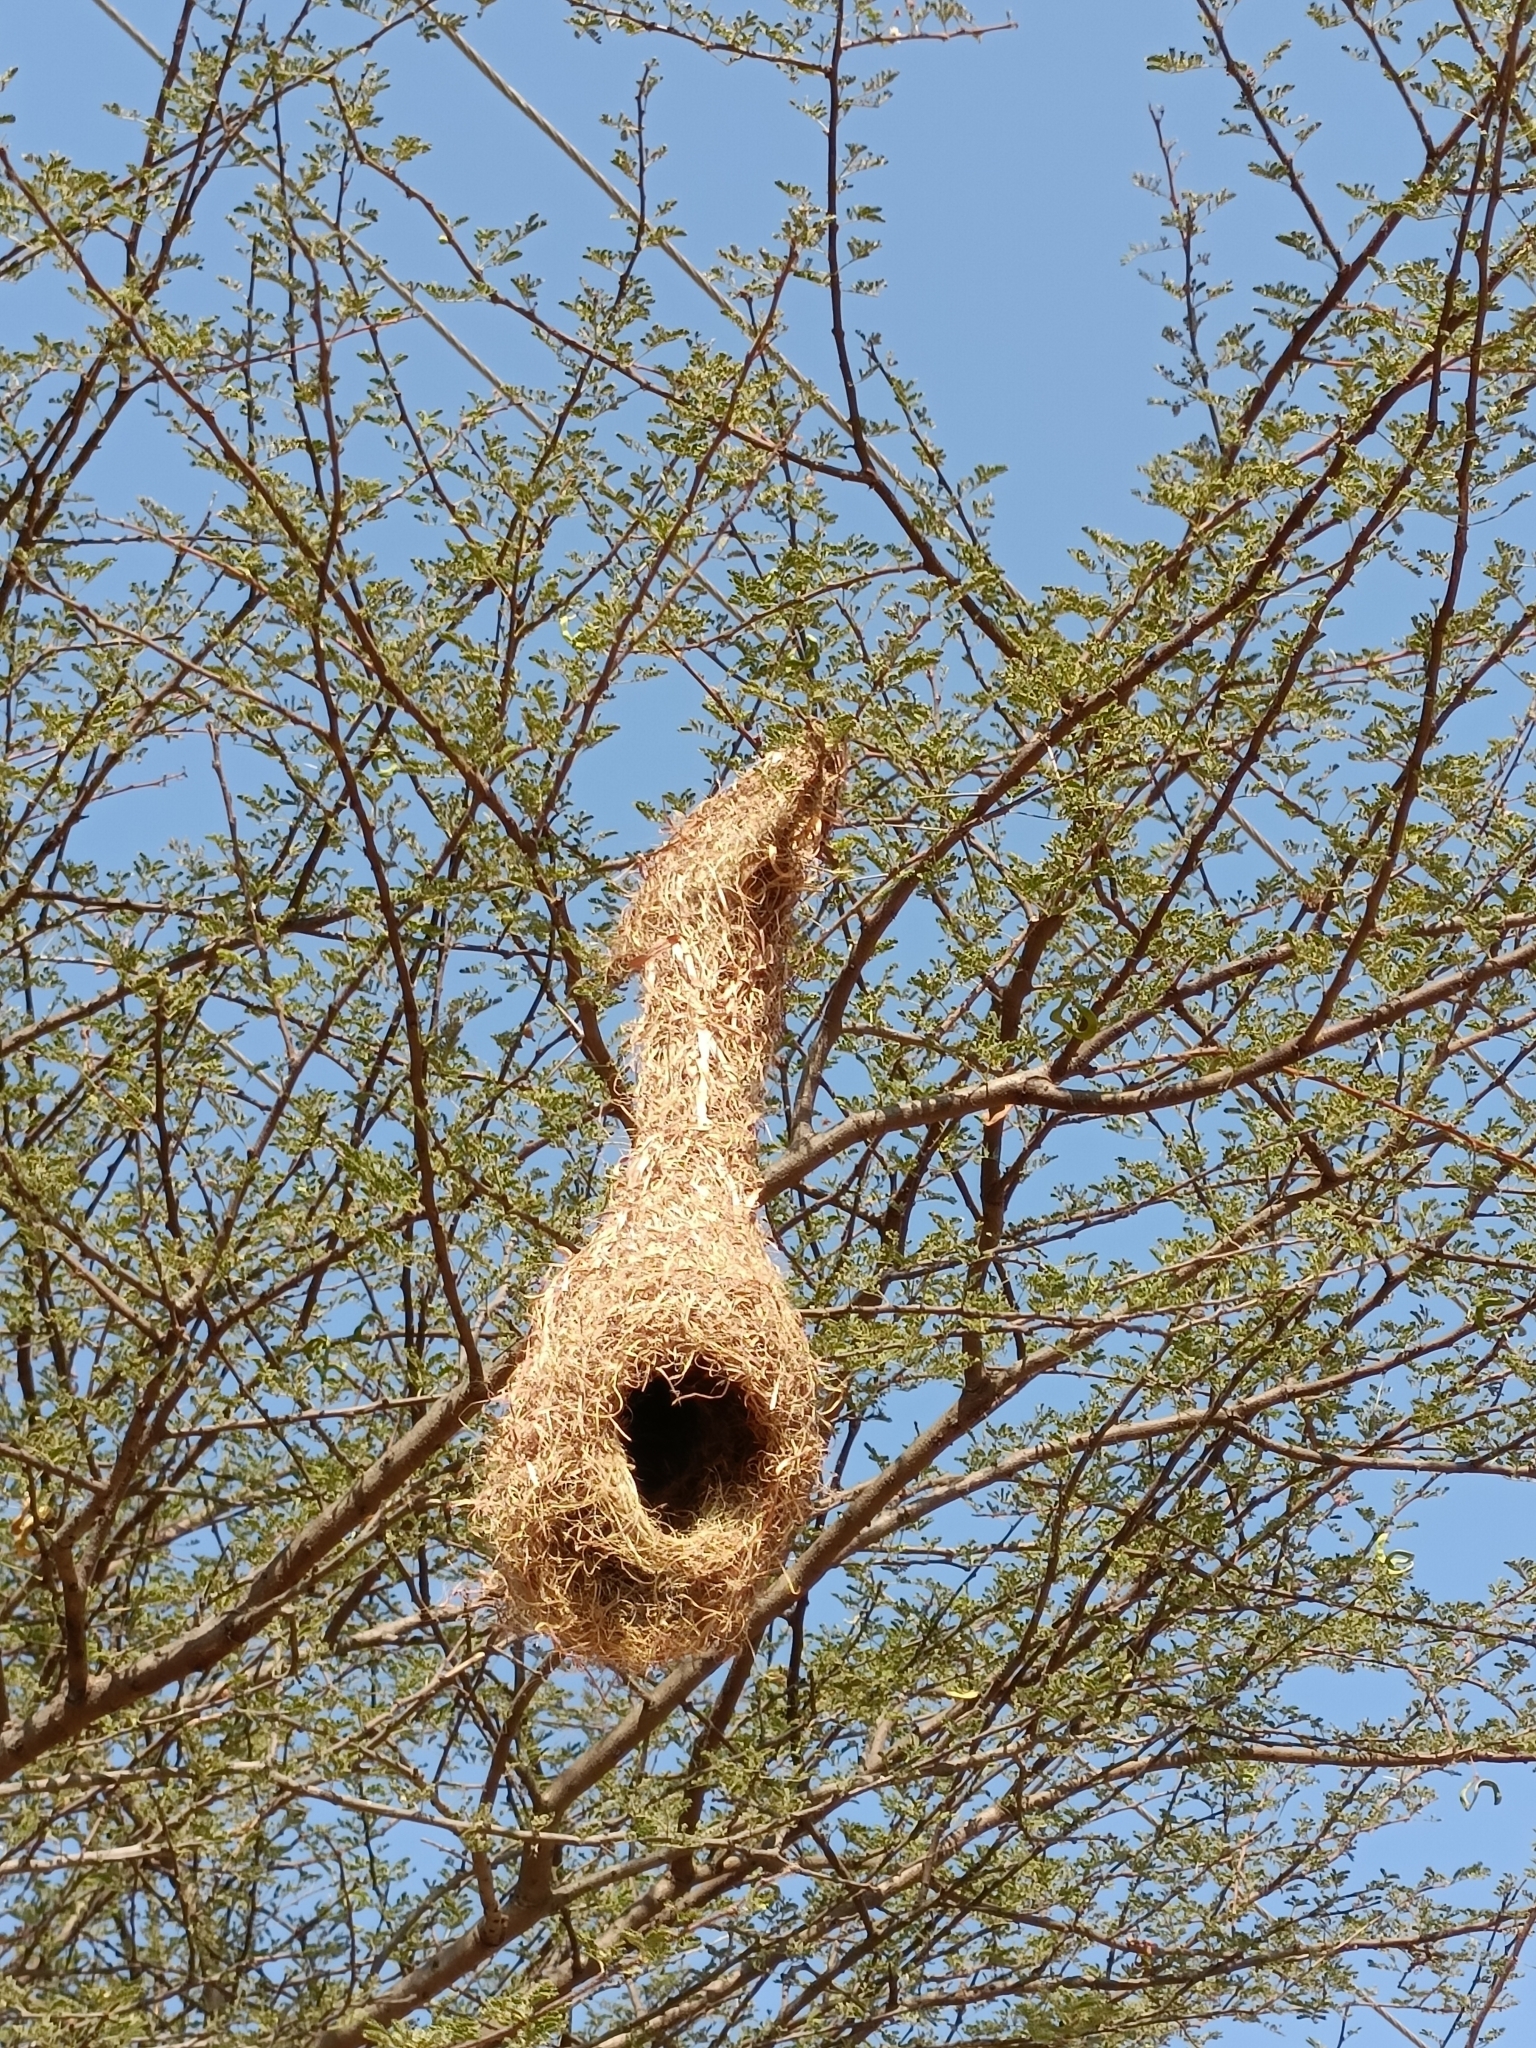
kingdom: Animalia
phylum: Chordata
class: Aves
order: Passeriformes
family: Ploceidae
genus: Ploceus
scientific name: Ploceus philippinus
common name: Baya weaver
